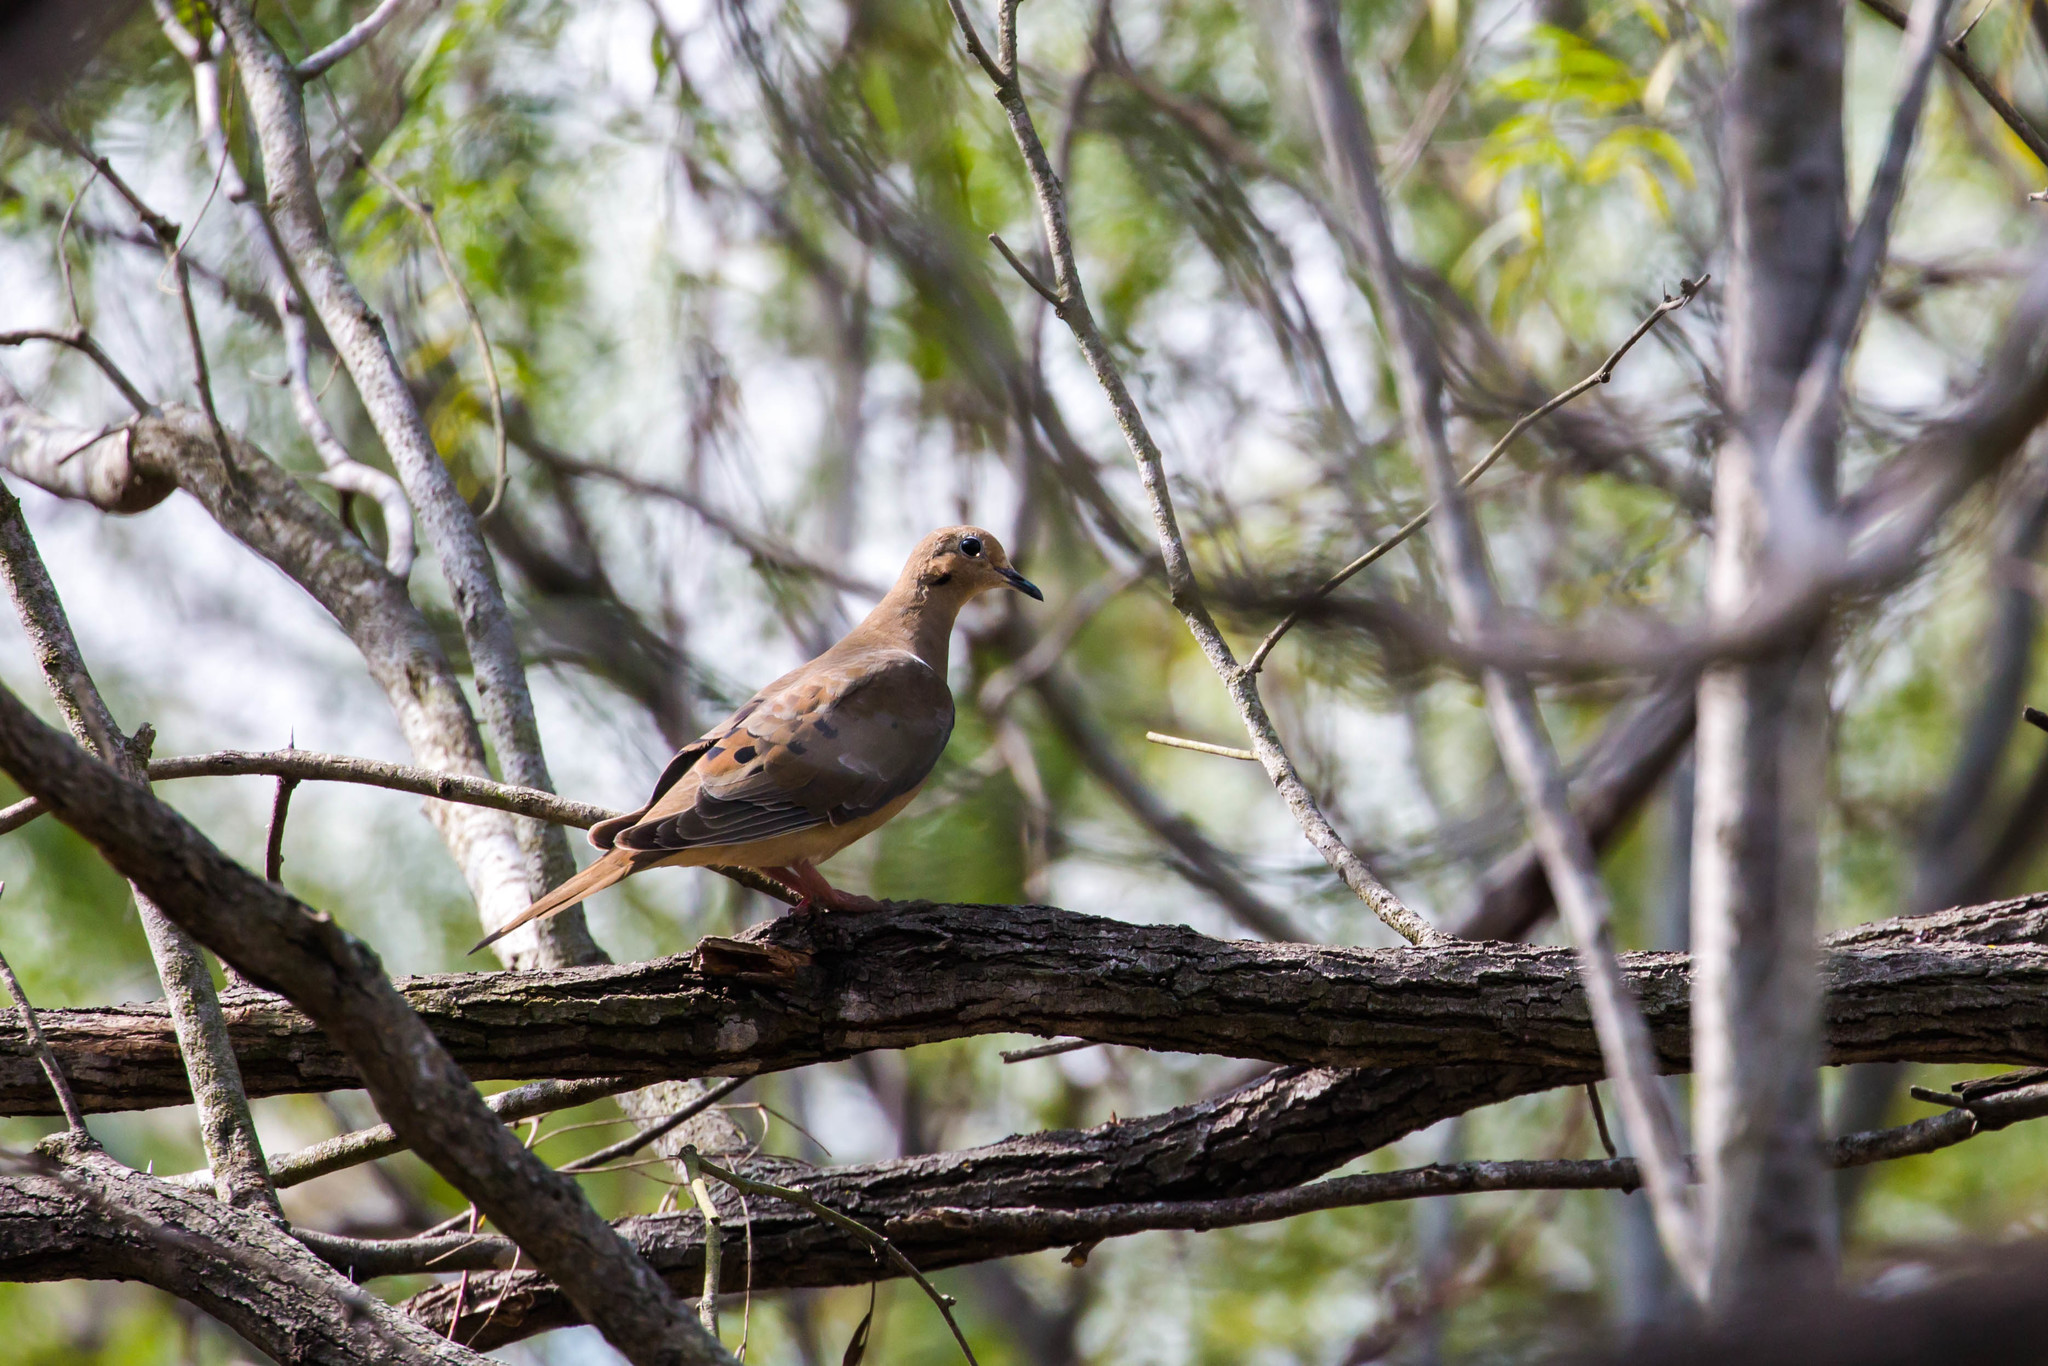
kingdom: Animalia
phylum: Chordata
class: Aves
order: Columbiformes
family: Columbidae
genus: Zenaida
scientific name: Zenaida macroura
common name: Mourning dove
